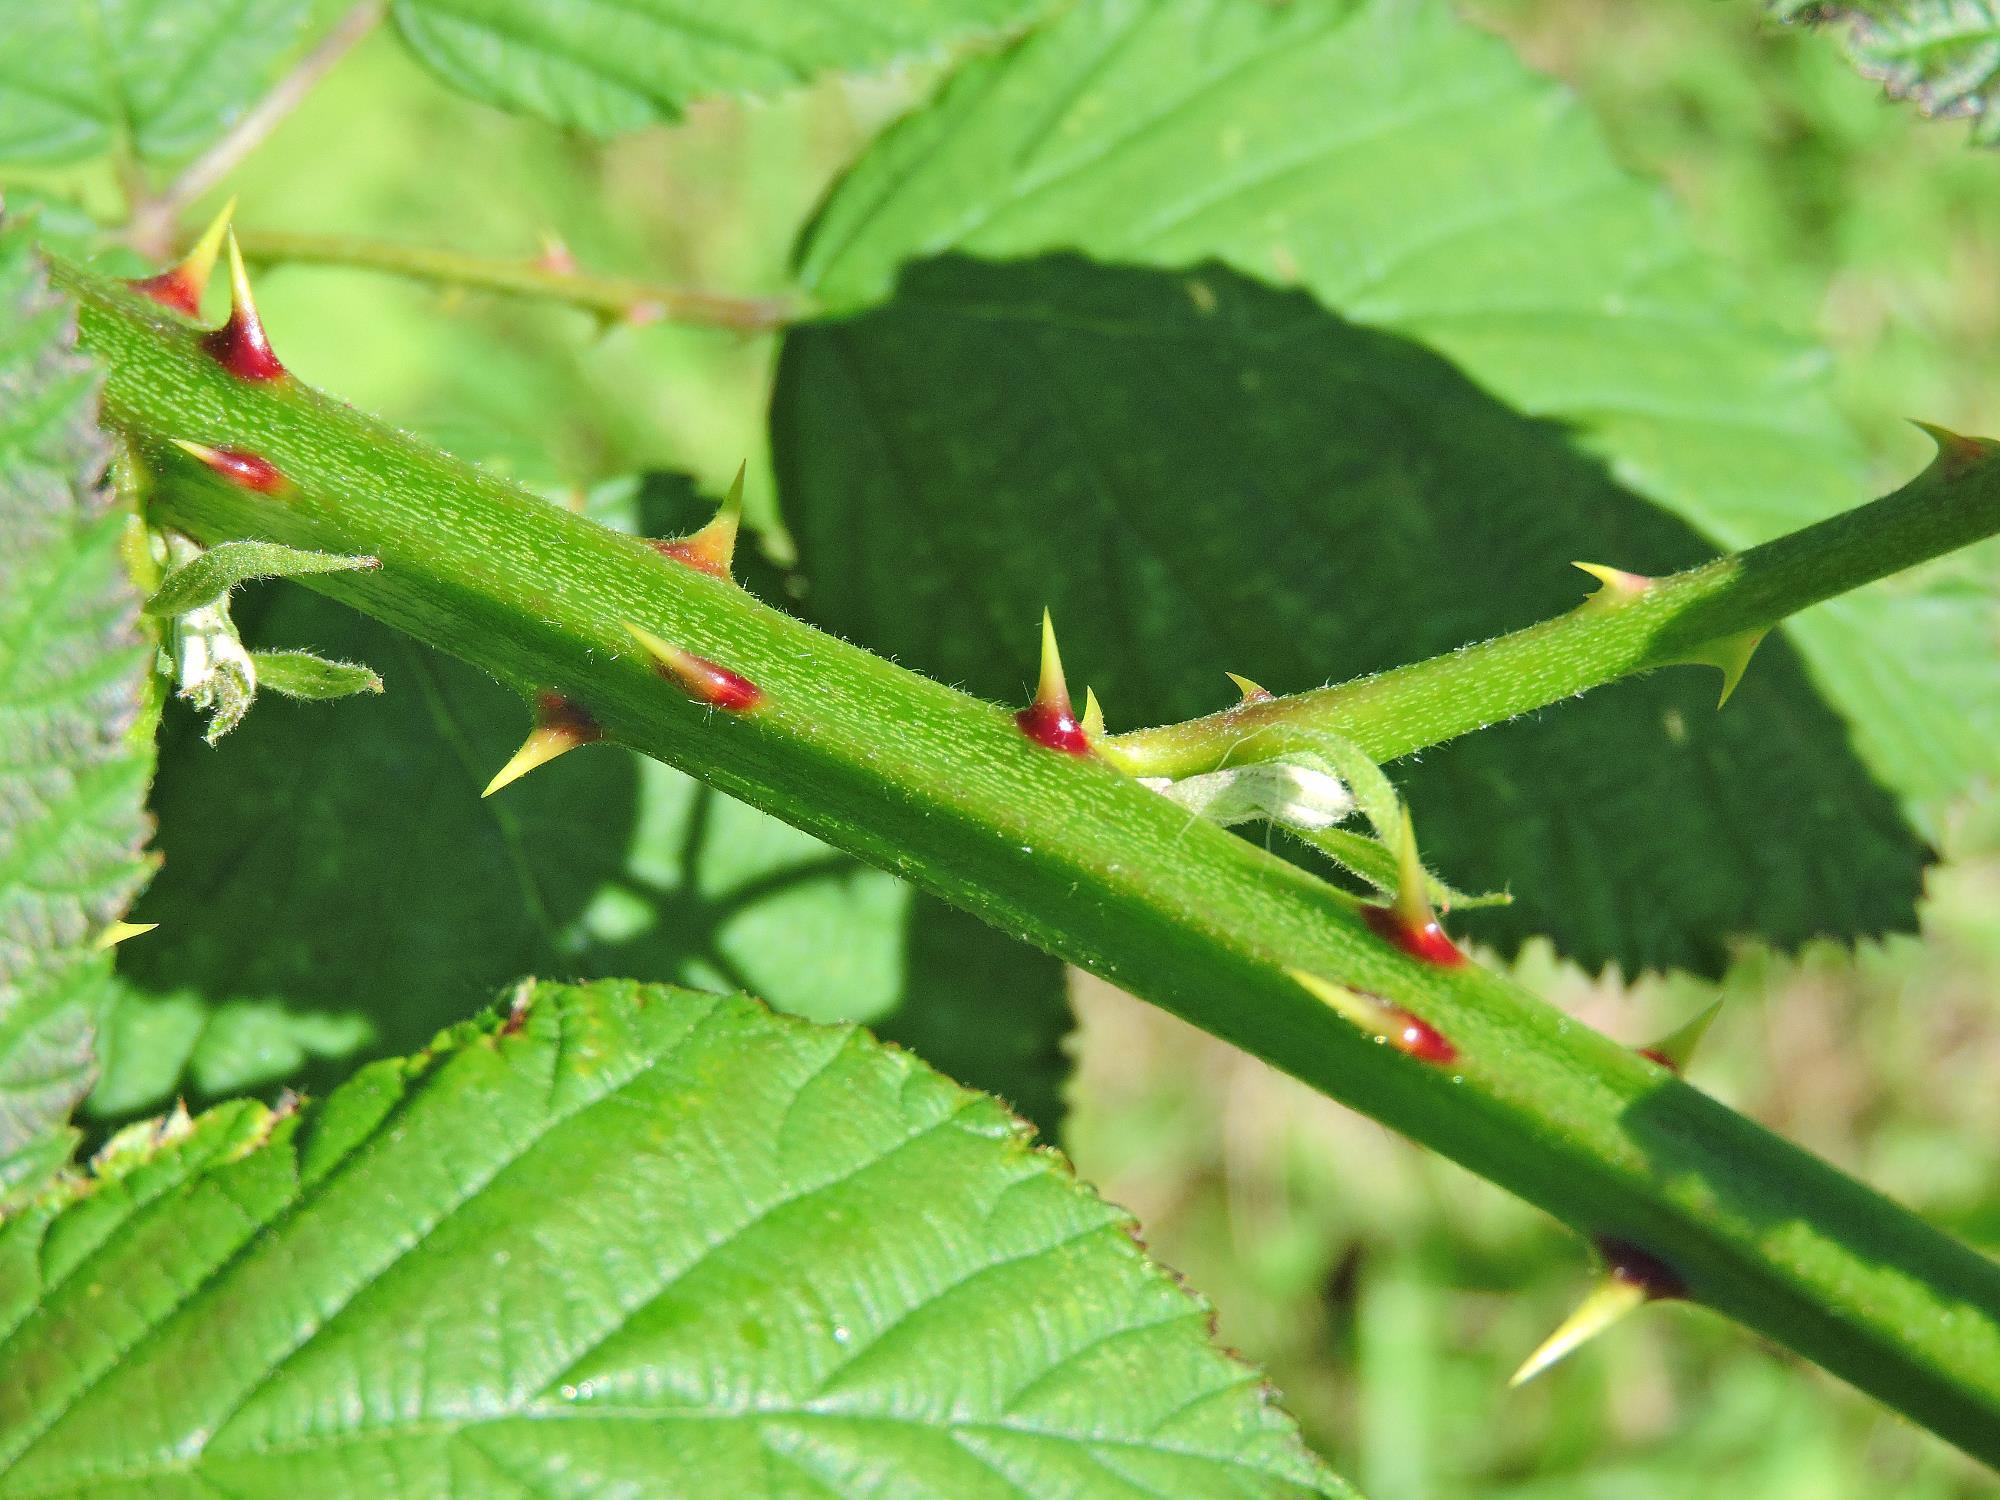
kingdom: Plantae
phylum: Tracheophyta
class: Magnoliopsida
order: Rosales
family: Rosaceae
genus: Rubus
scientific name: Rubus armeniacus
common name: Himalayan blackberry
